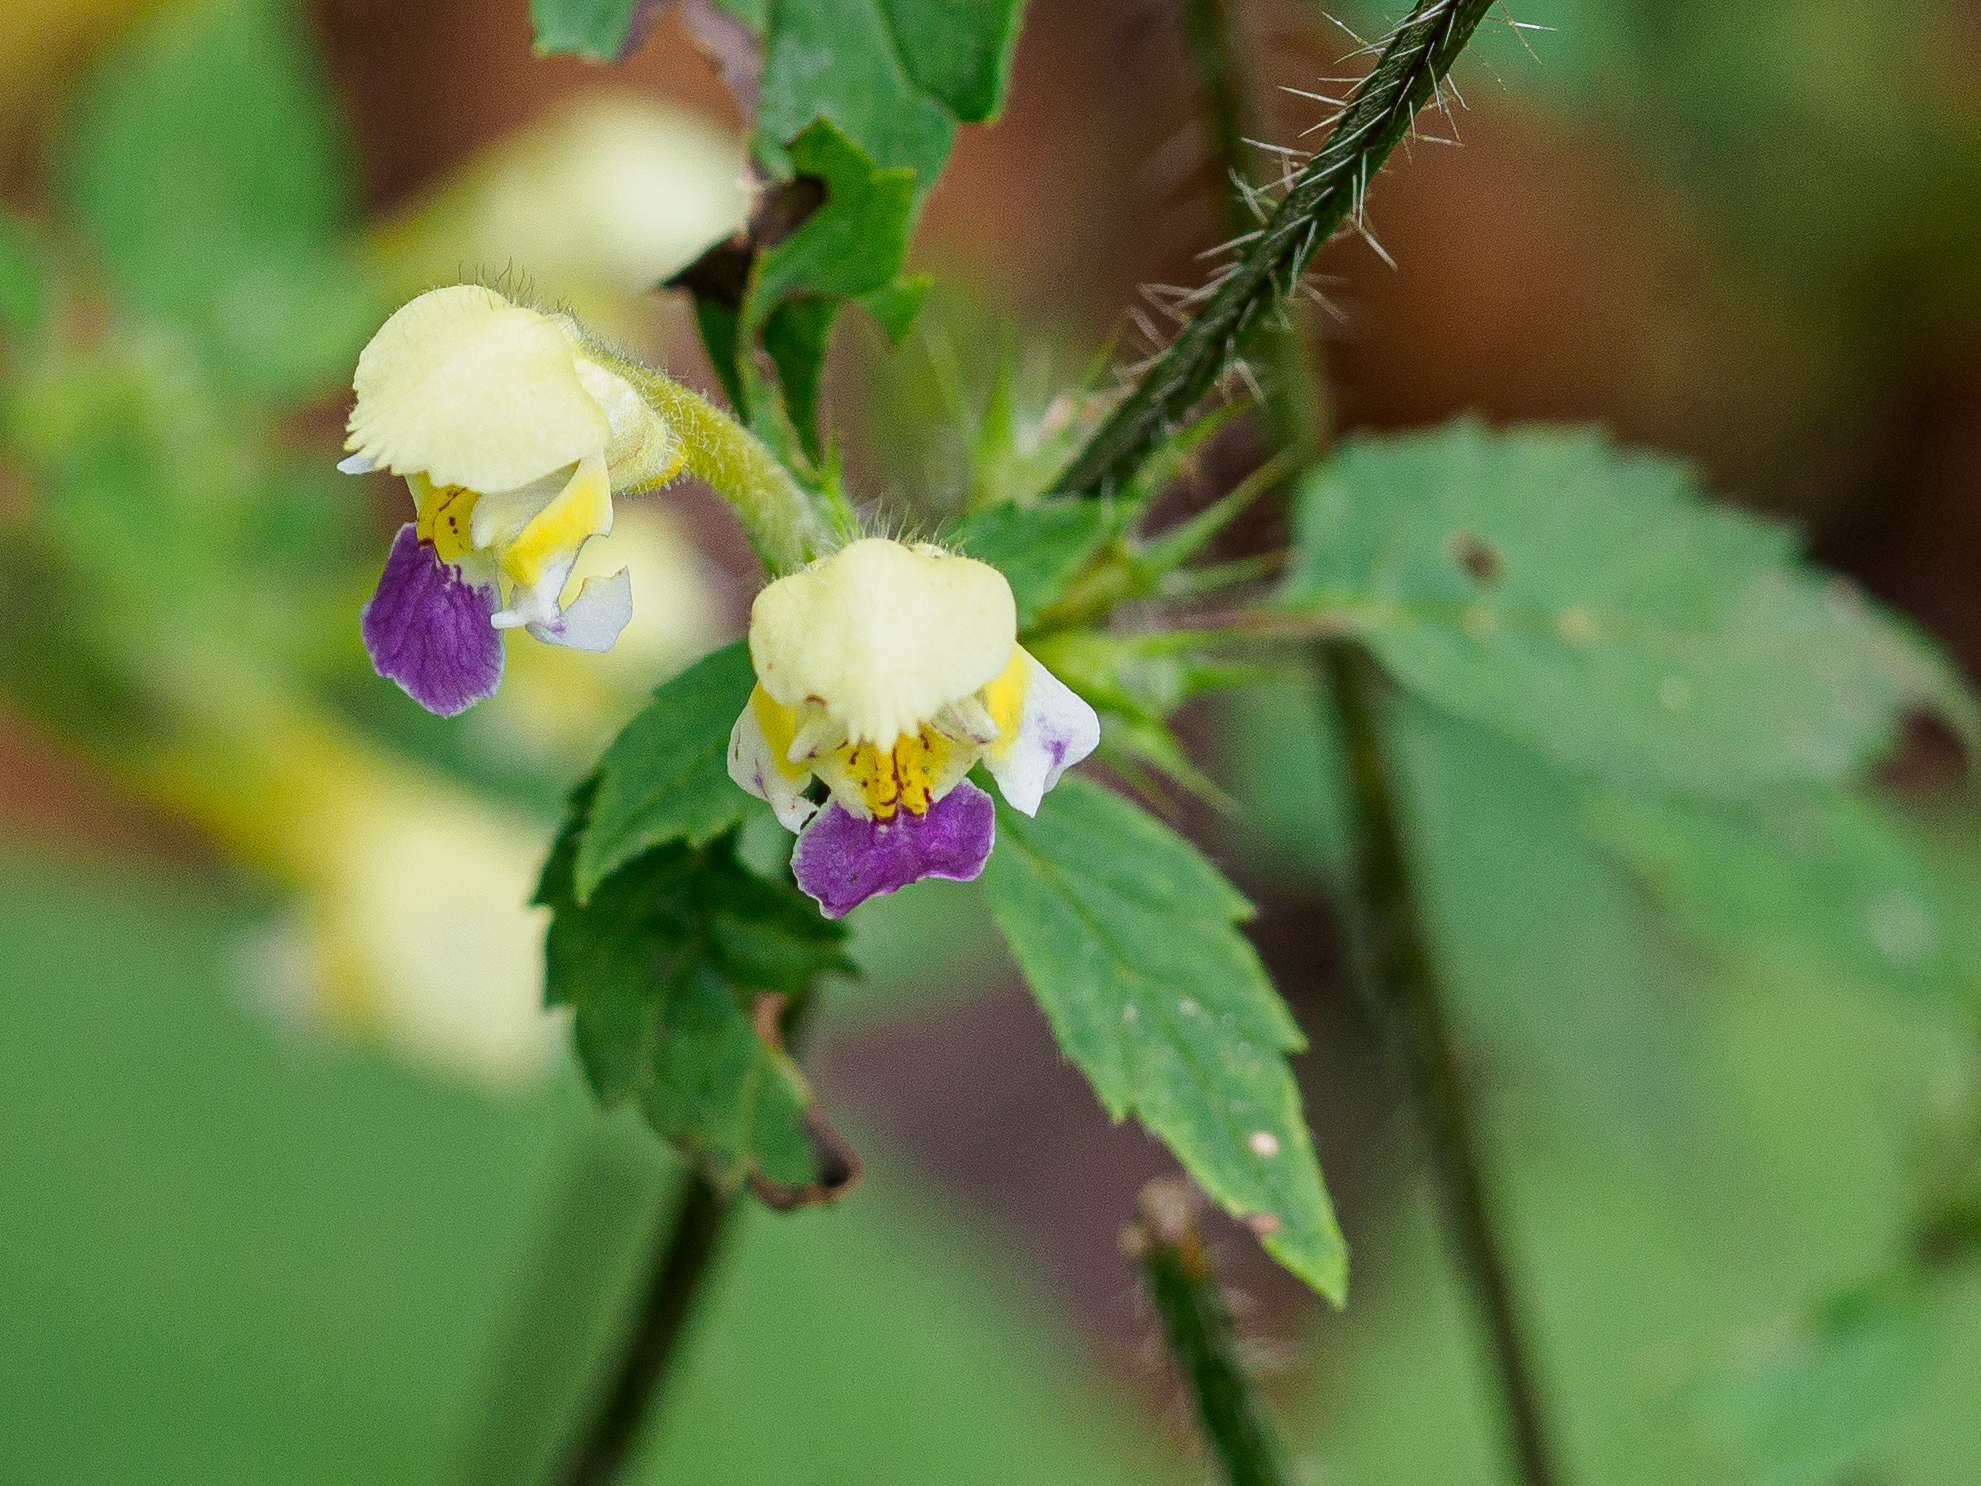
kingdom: Plantae
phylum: Tracheophyta
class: Magnoliopsida
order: Lamiales
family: Lamiaceae
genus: Galeopsis
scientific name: Galeopsis speciosa
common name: Large-flowered hemp-nettle
